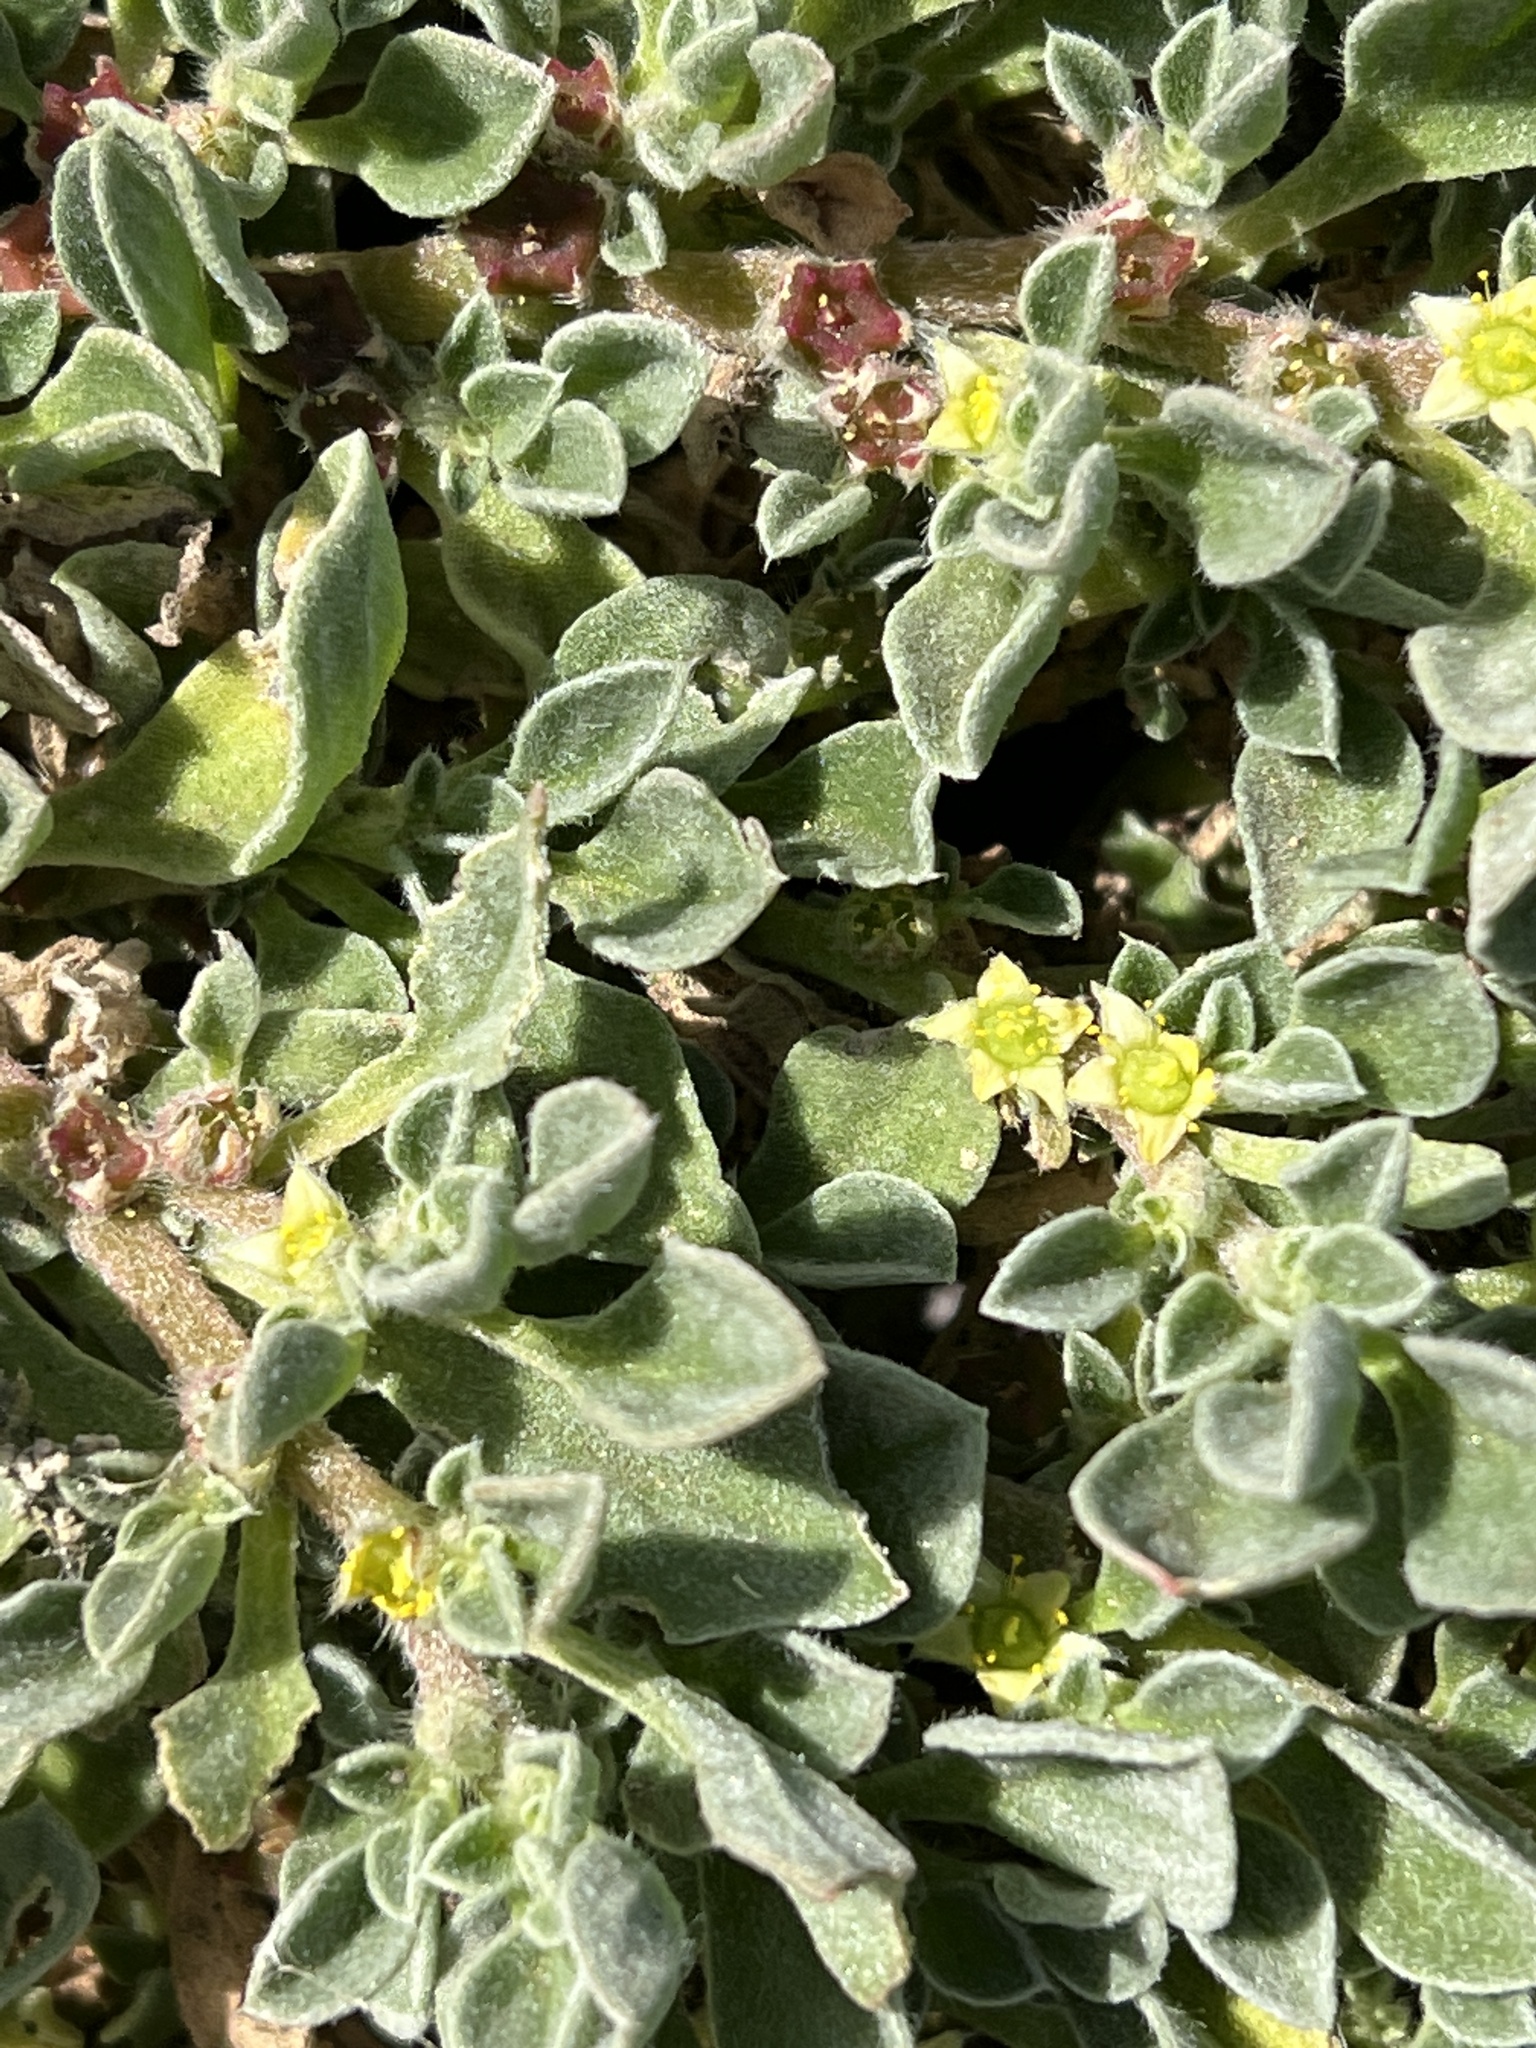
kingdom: Plantae
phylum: Tracheophyta
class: Magnoliopsida
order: Caryophyllales
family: Aizoaceae
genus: Aizoon
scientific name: Aizoon canariense
